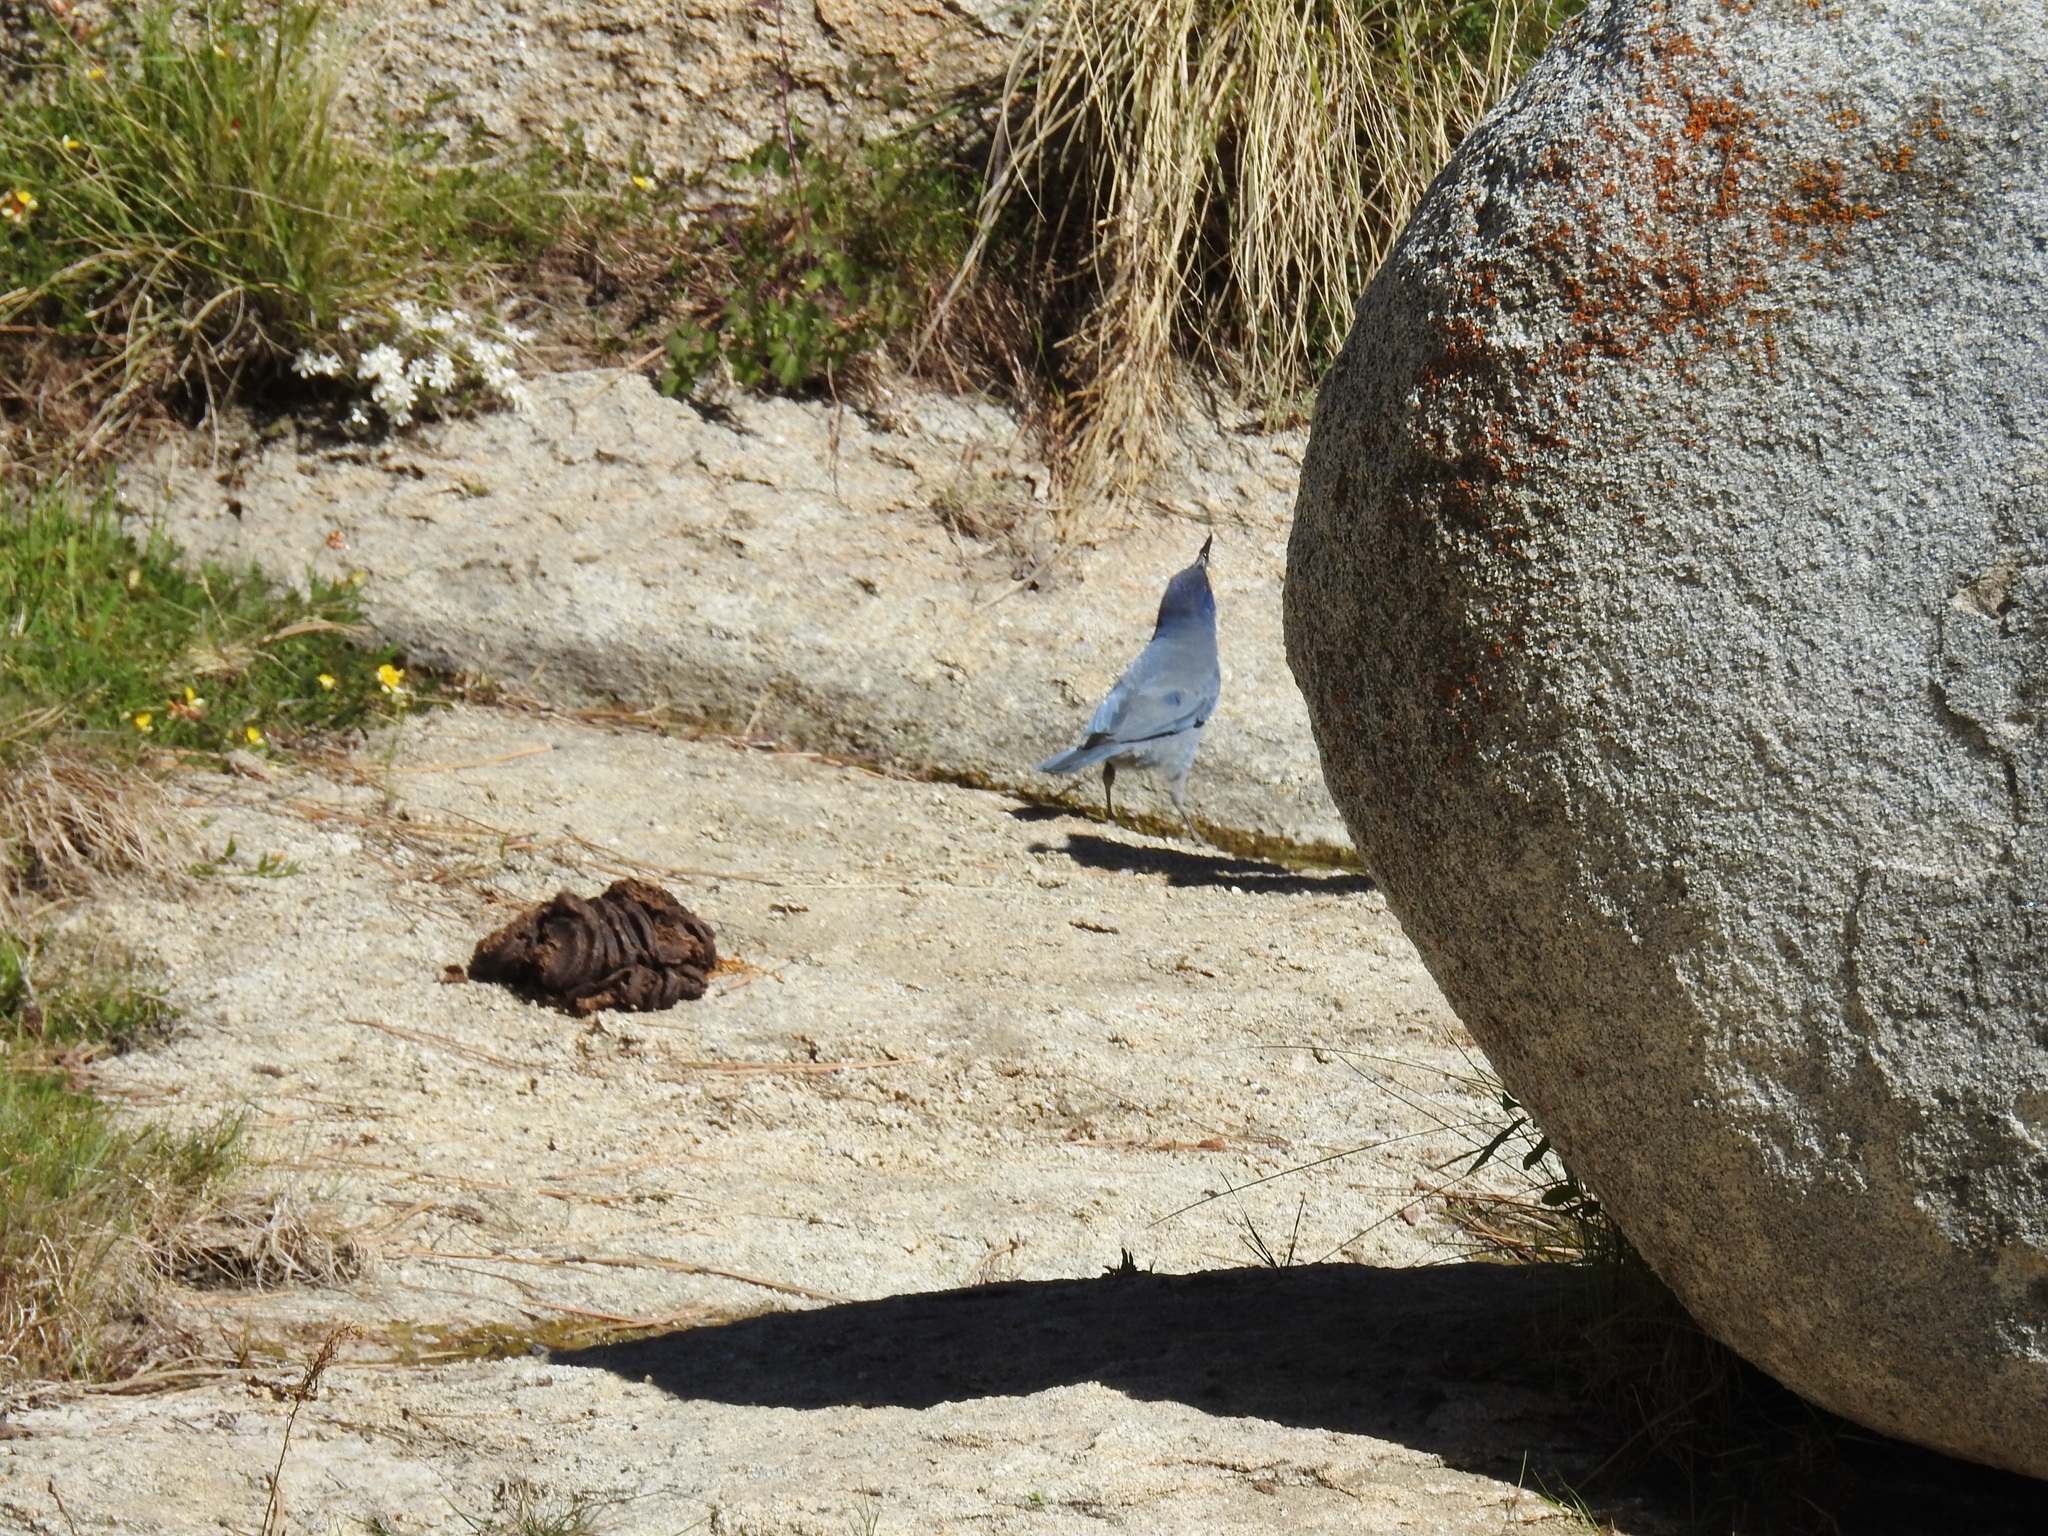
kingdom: Animalia
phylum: Chordata
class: Aves
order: Passeriformes
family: Corvidae
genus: Gymnorhinus
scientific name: Gymnorhinus cyanocephalus
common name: Pinyon jay
